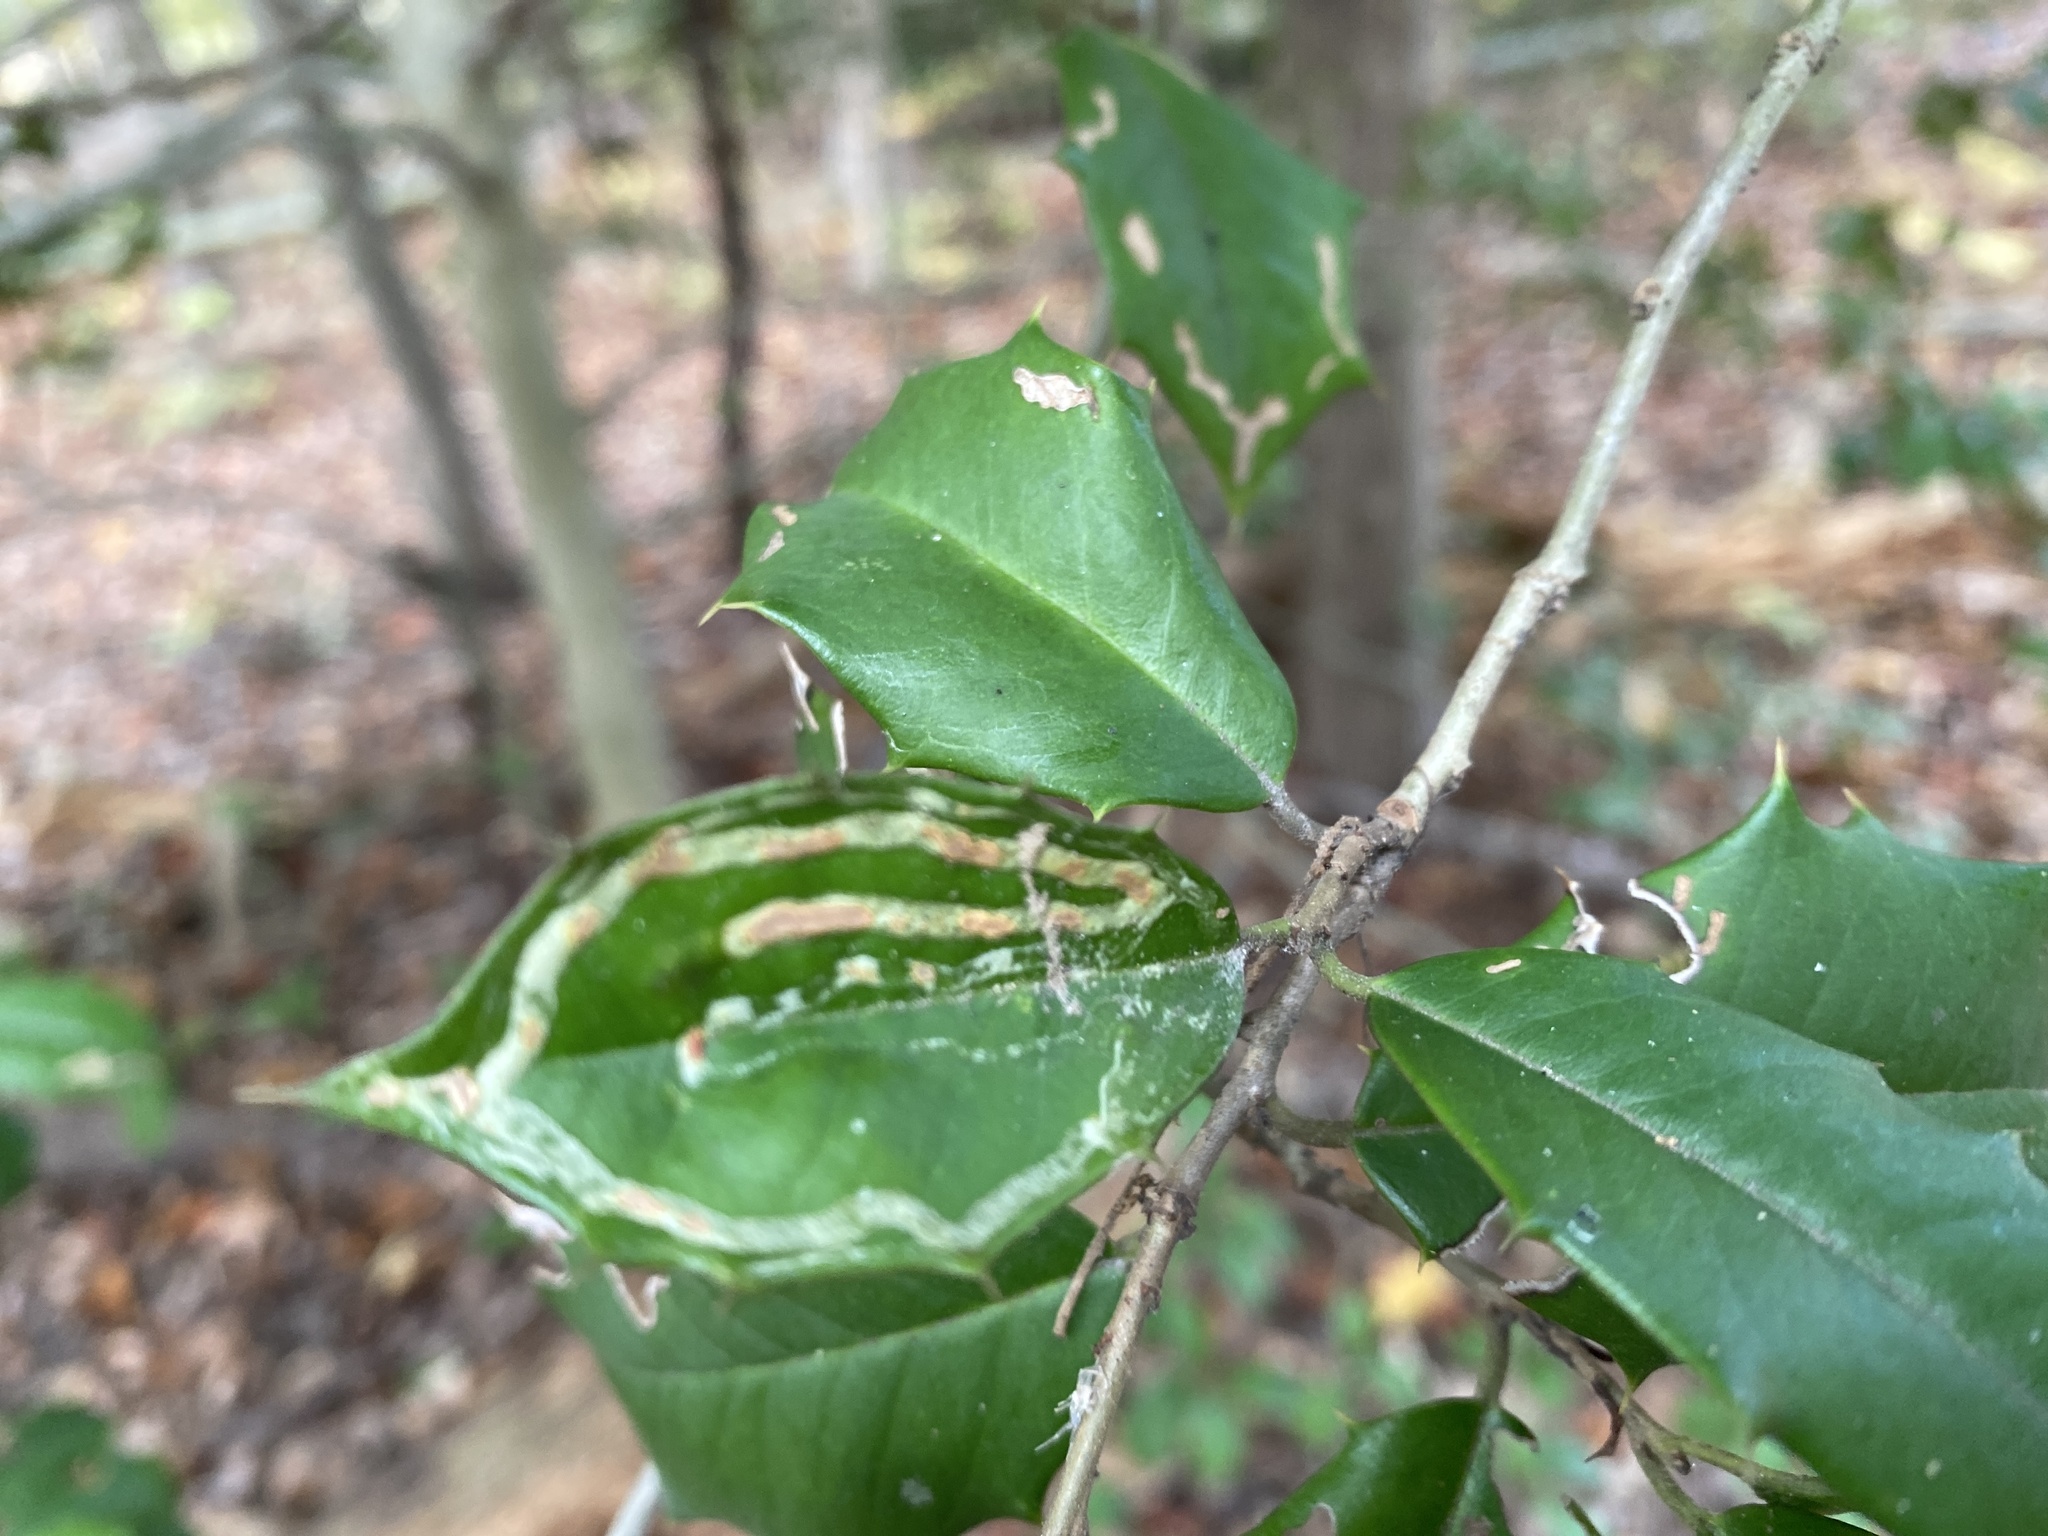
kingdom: Animalia
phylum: Arthropoda
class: Insecta
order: Diptera
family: Agromyzidae
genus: Phytomyza
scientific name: Phytomyza opacae
